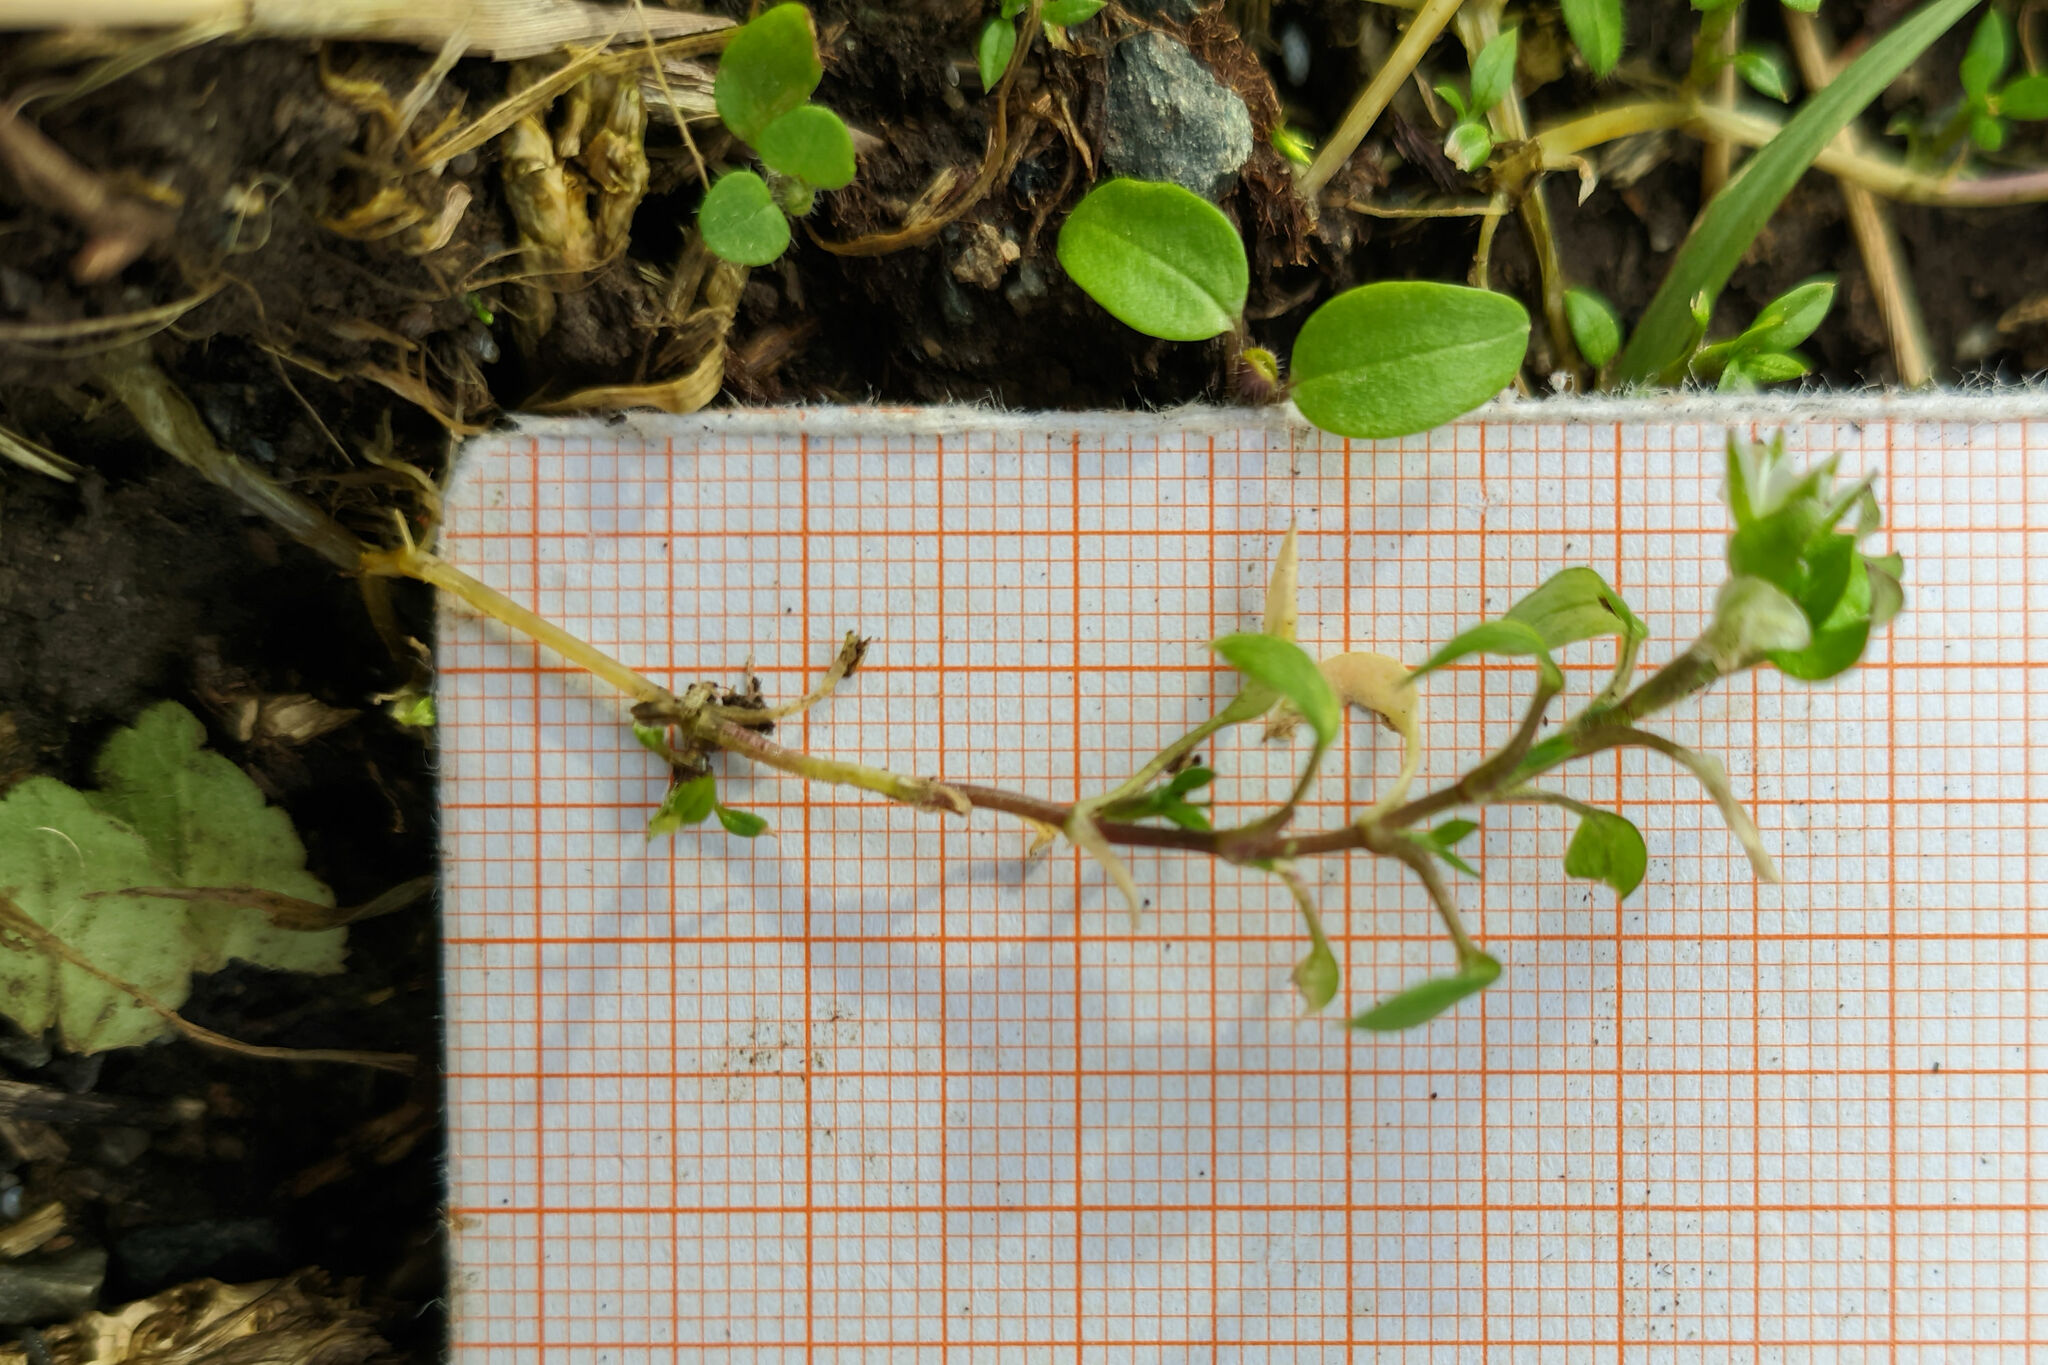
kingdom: Plantae
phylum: Tracheophyta
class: Magnoliopsida
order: Caryophyllales
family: Caryophyllaceae
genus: Stellaria
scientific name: Stellaria
